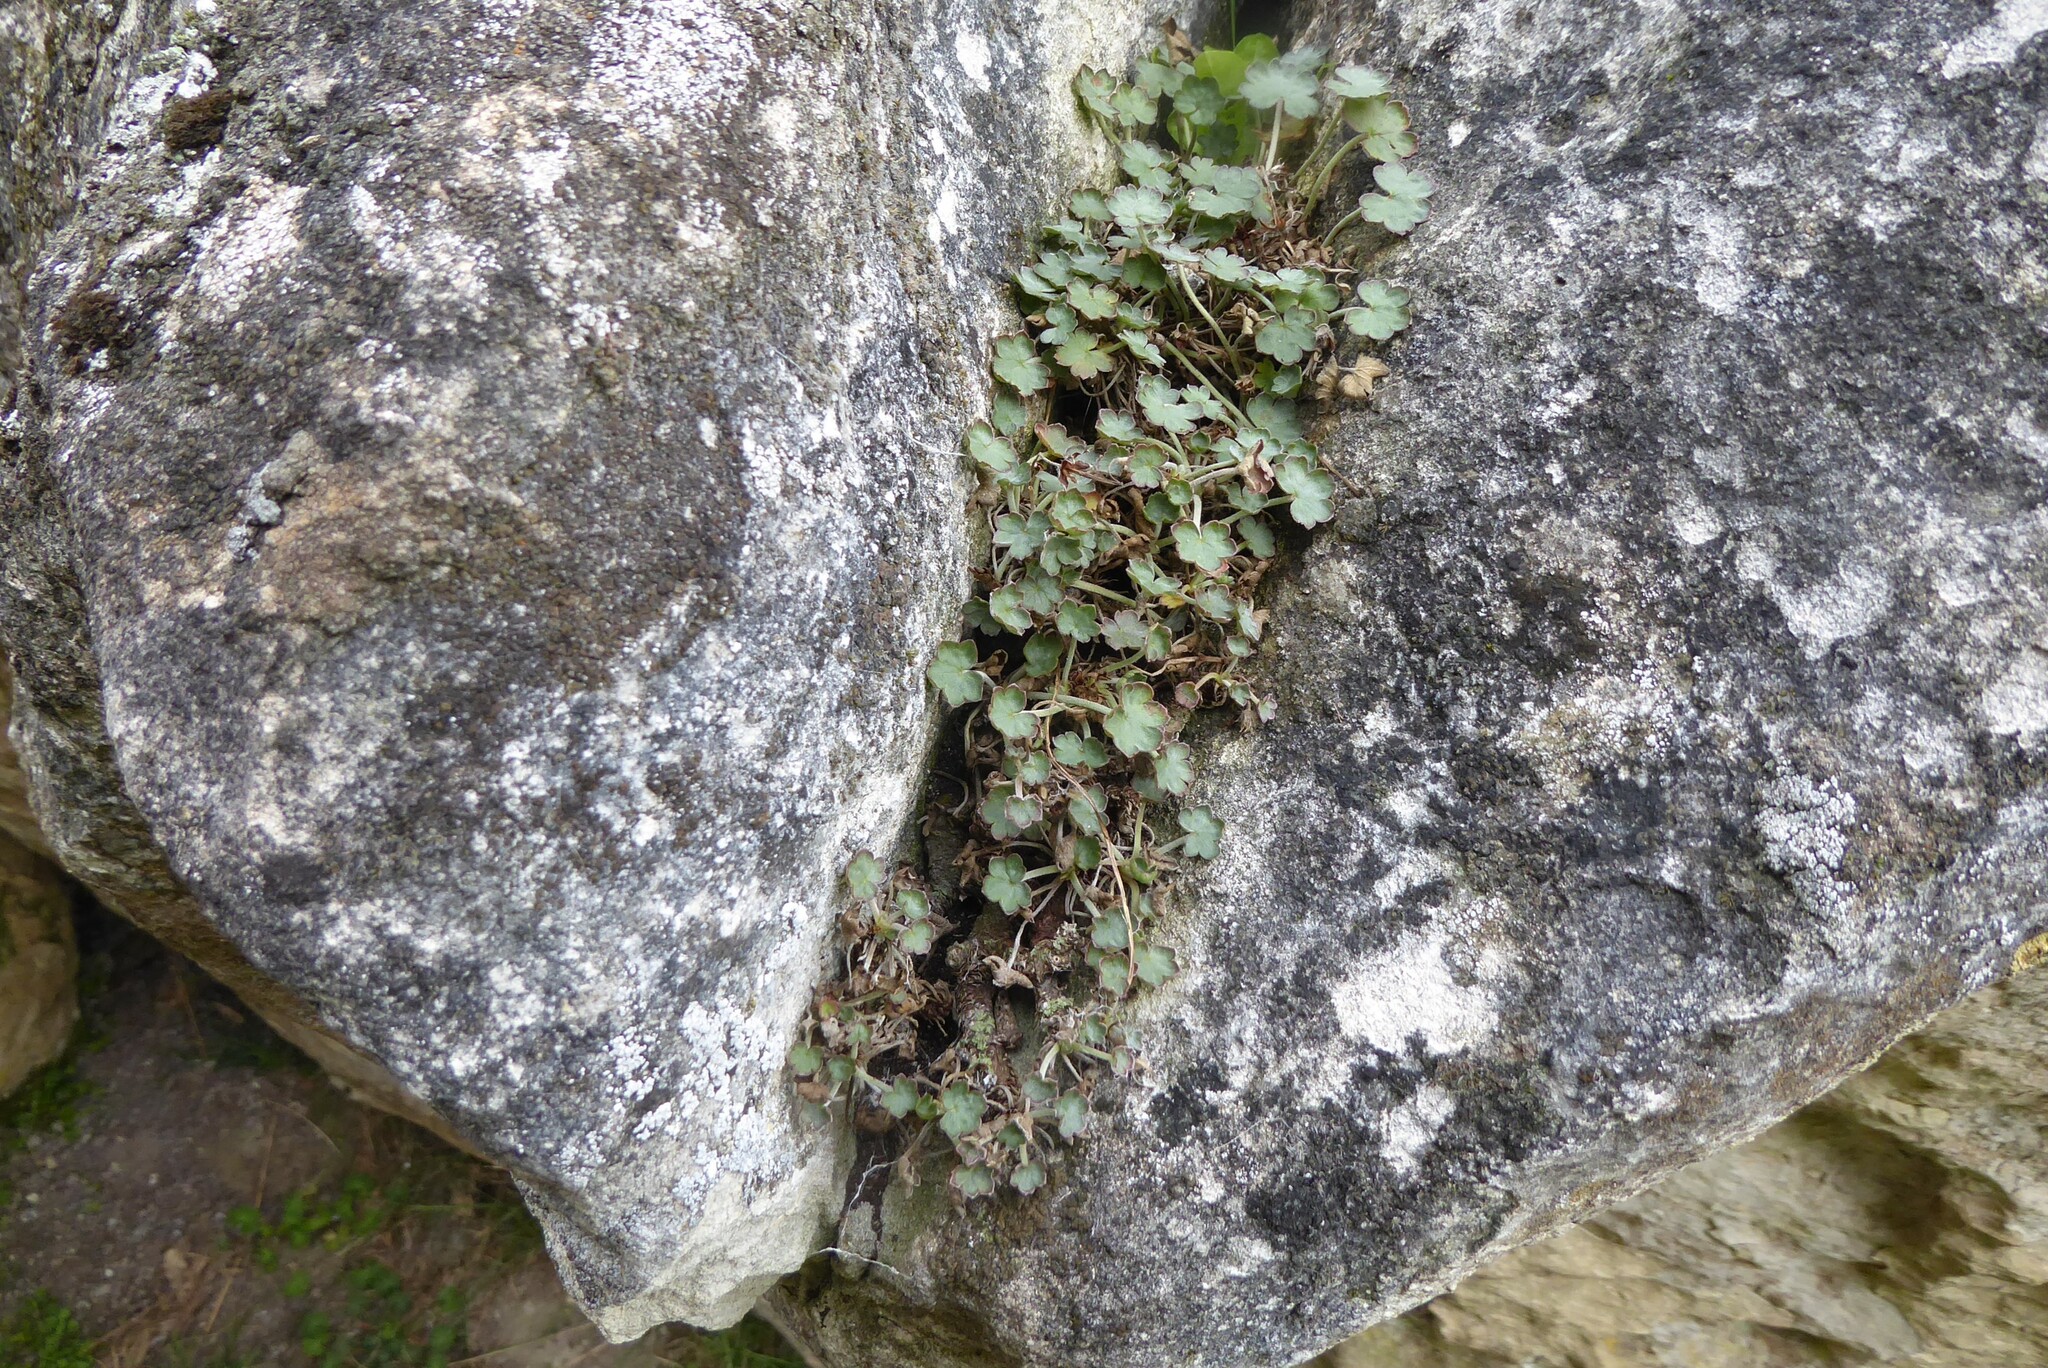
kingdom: Plantae
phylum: Tracheophyta
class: Magnoliopsida
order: Geraniales
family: Geraniaceae
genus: Geranium
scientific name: Geranium socolateum
